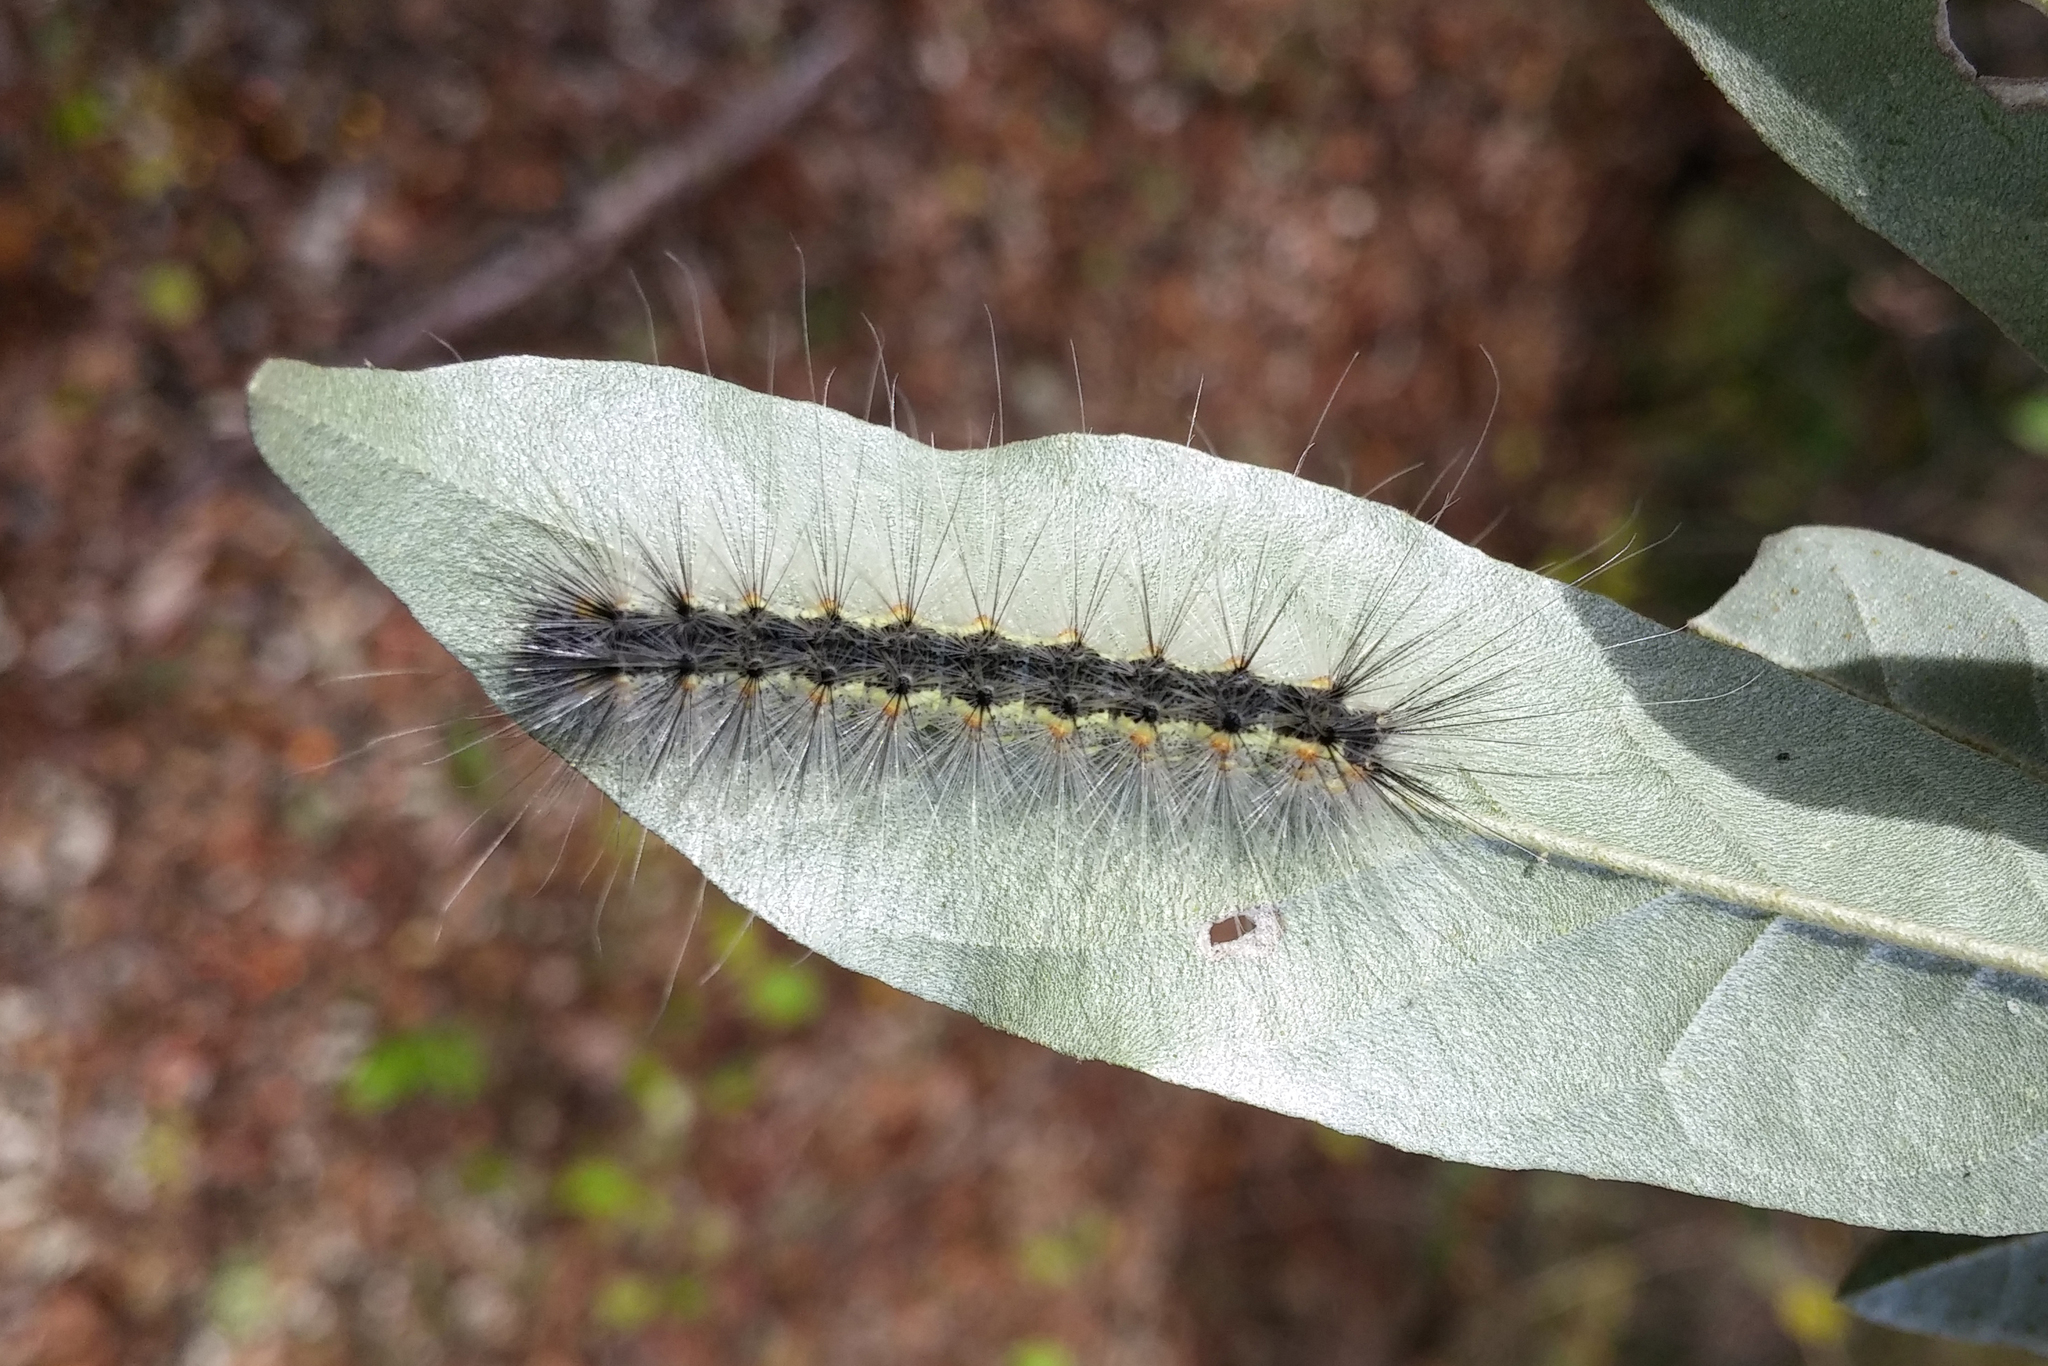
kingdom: Animalia
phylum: Arthropoda
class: Insecta
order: Lepidoptera
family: Erebidae
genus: Hyphantria
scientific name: Hyphantria cunea
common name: American white moth
